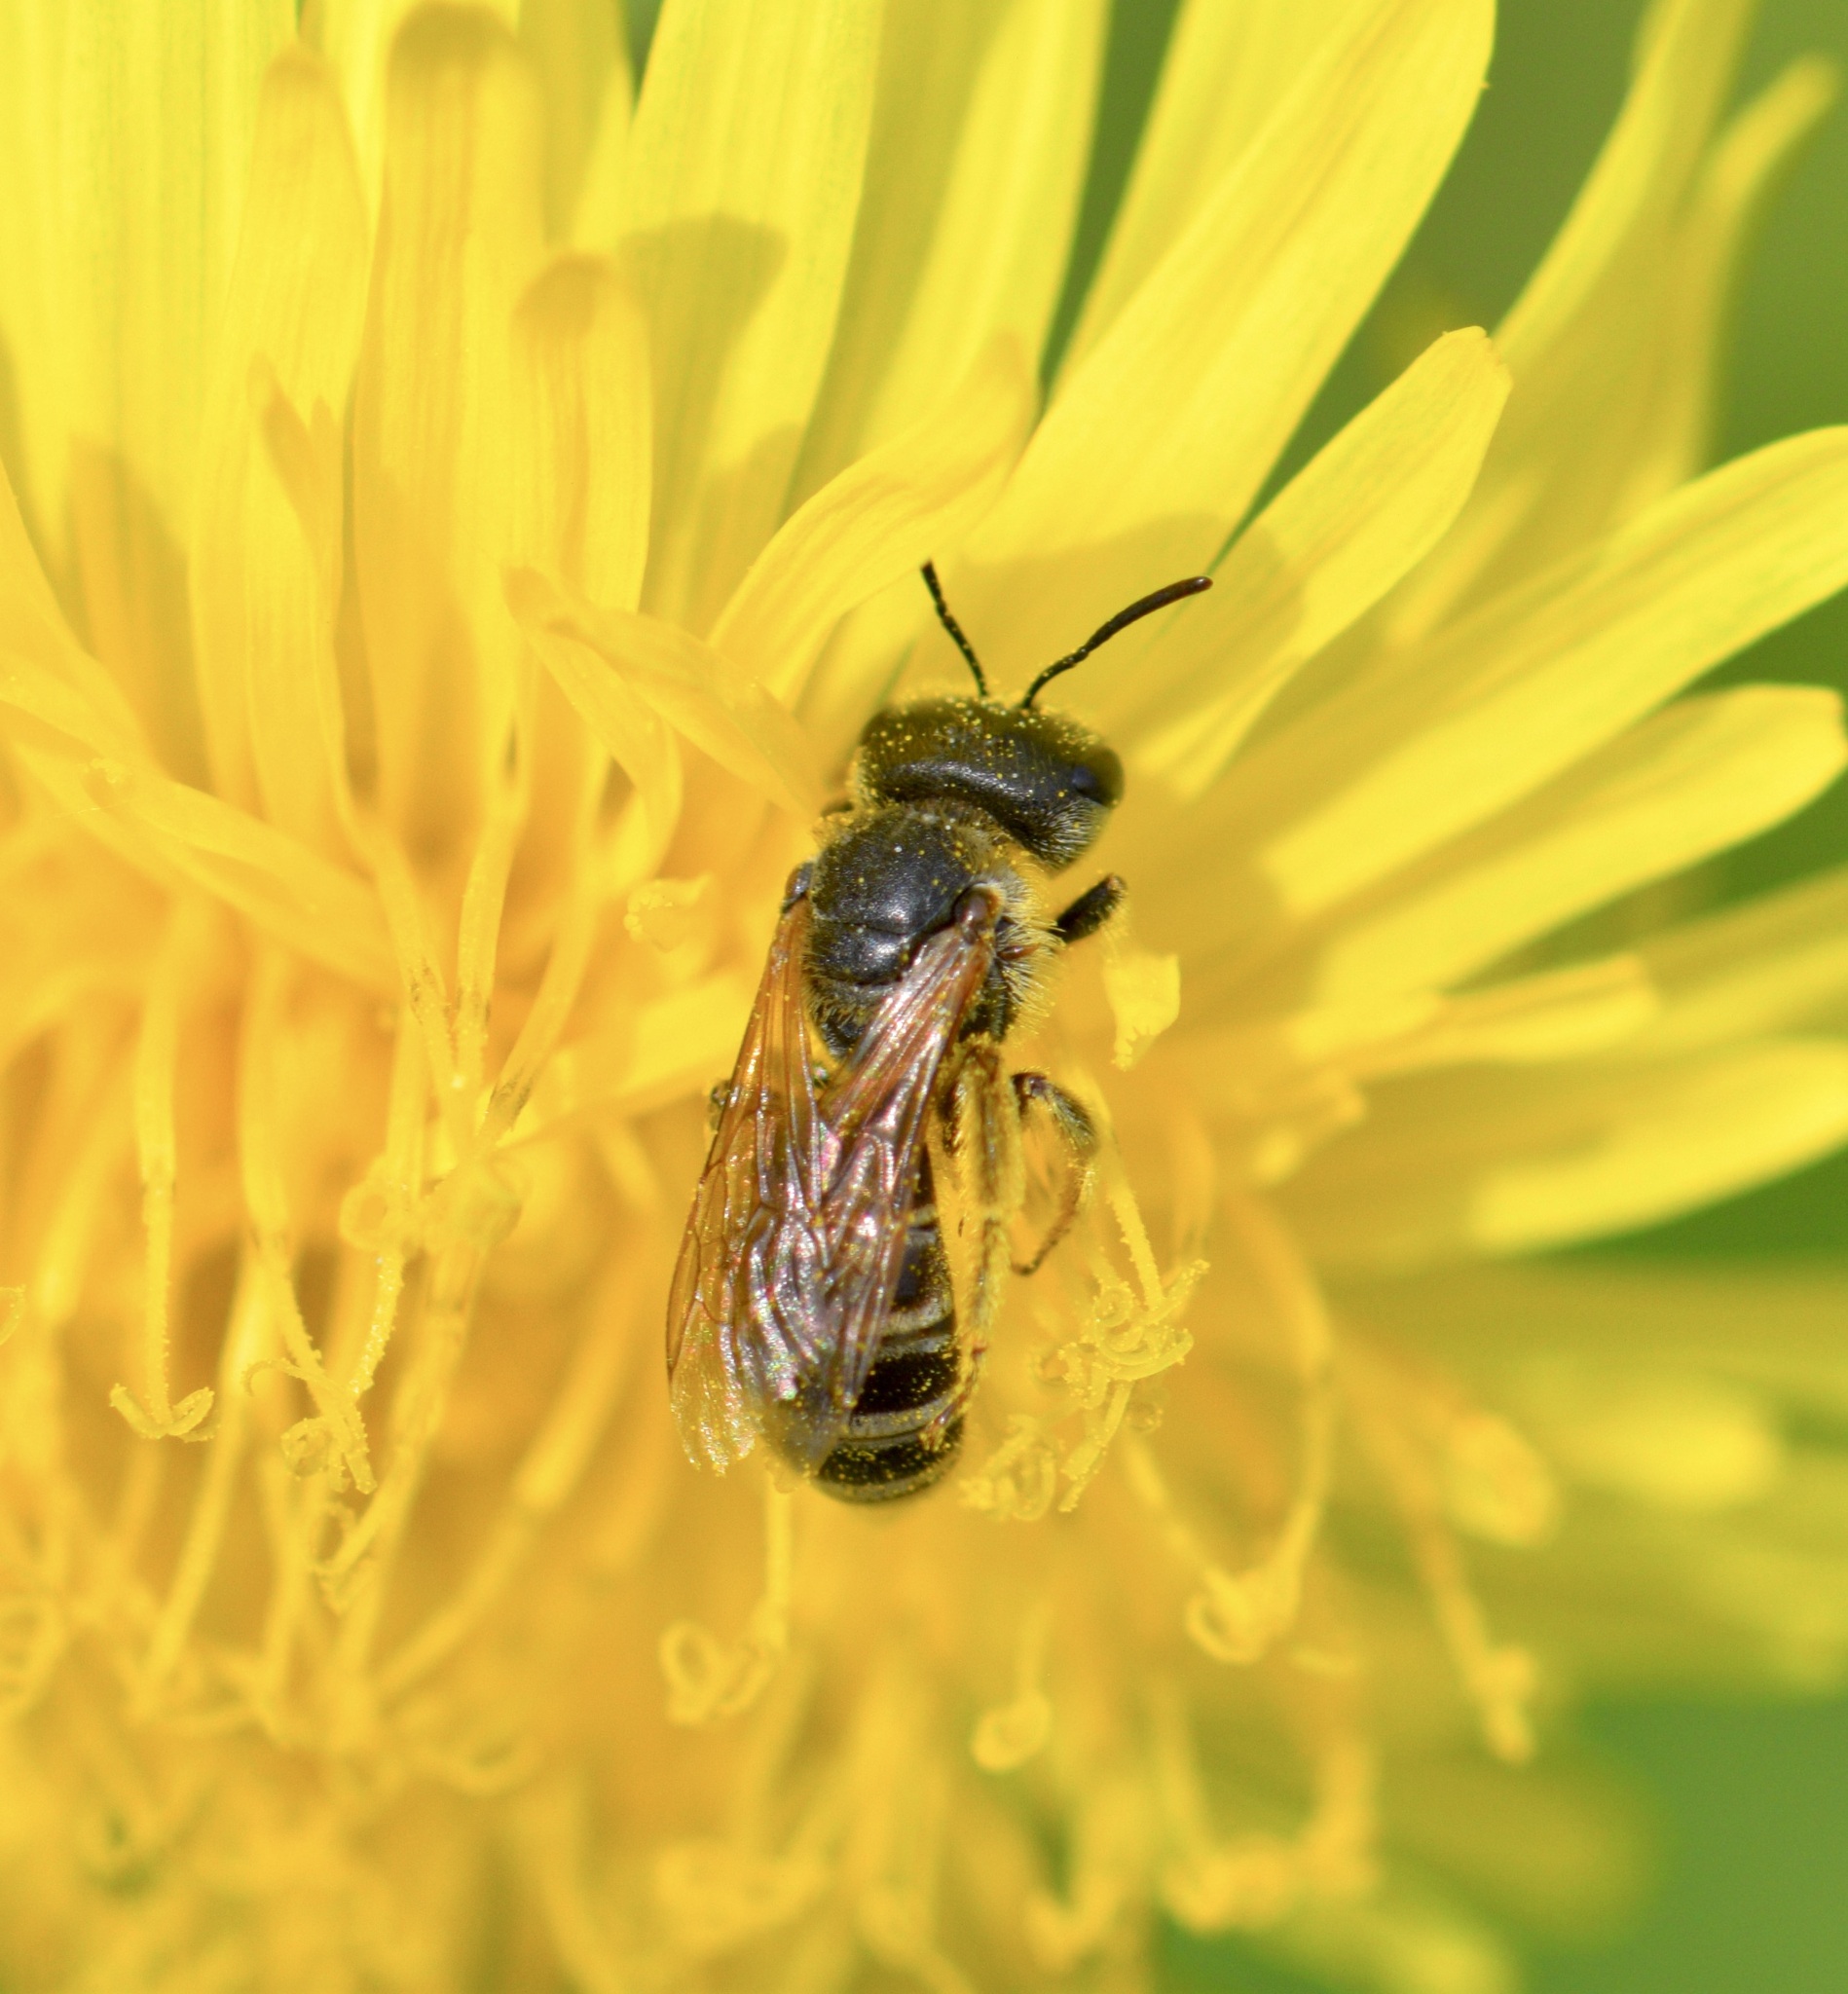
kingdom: Animalia
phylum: Arthropoda
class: Insecta
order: Hymenoptera
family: Halictidae
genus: Halictus
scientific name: Halictus ligatus
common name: Ligated furrow bee
